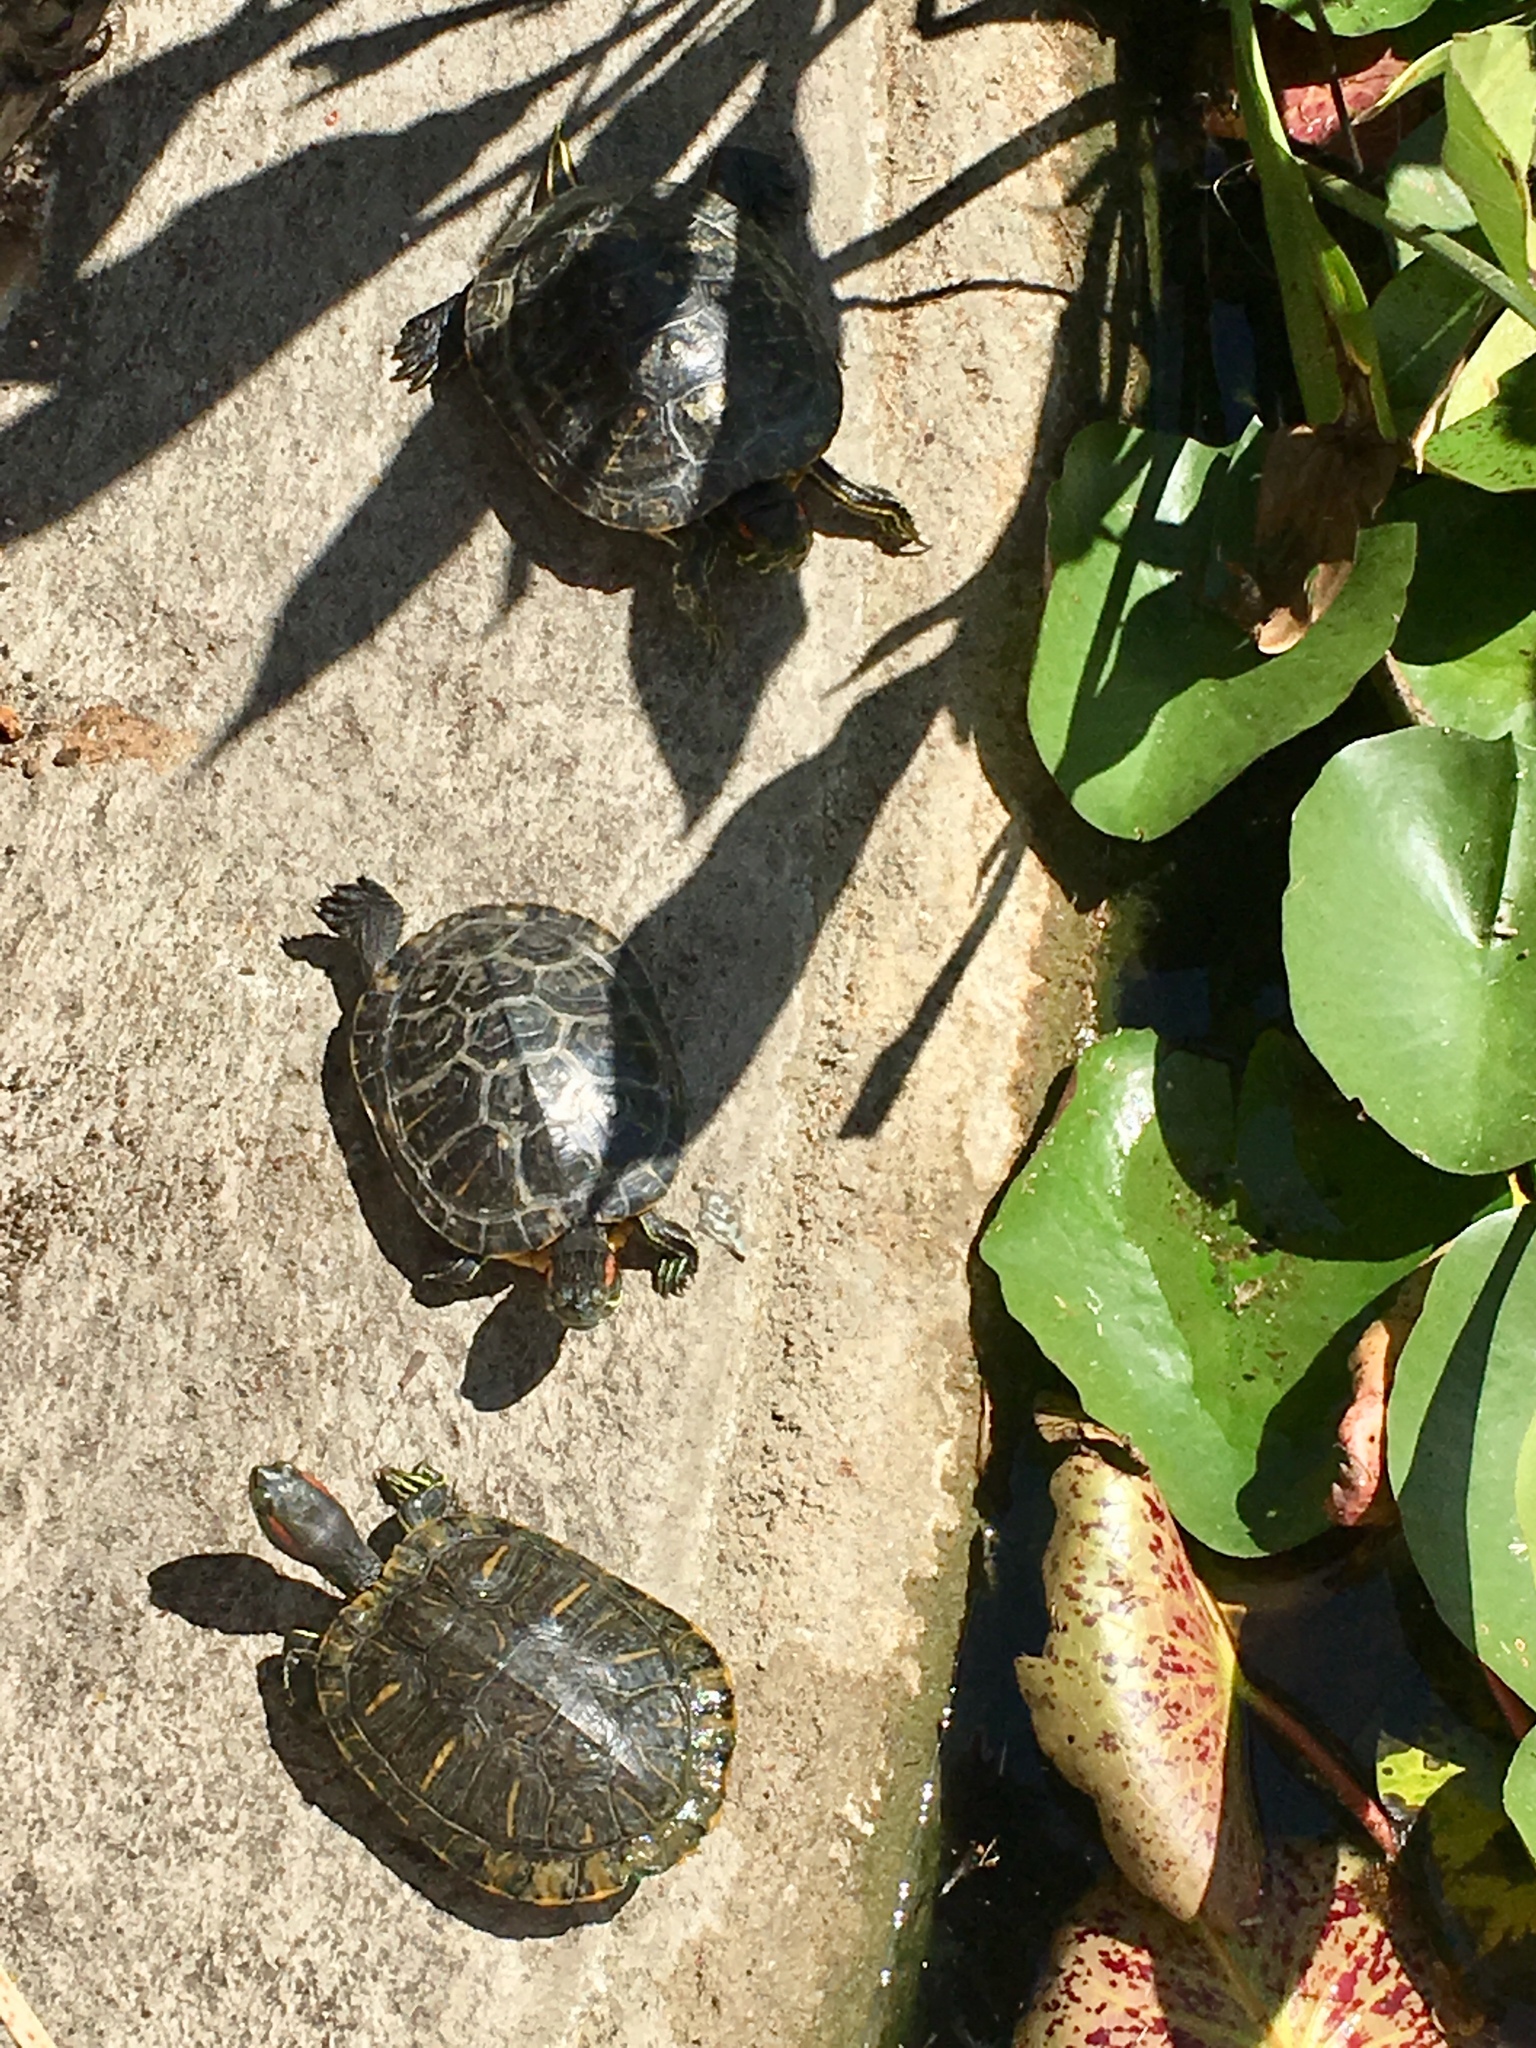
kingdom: Animalia
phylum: Chordata
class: Testudines
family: Emydidae
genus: Trachemys
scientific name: Trachemys scripta
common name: Slider
